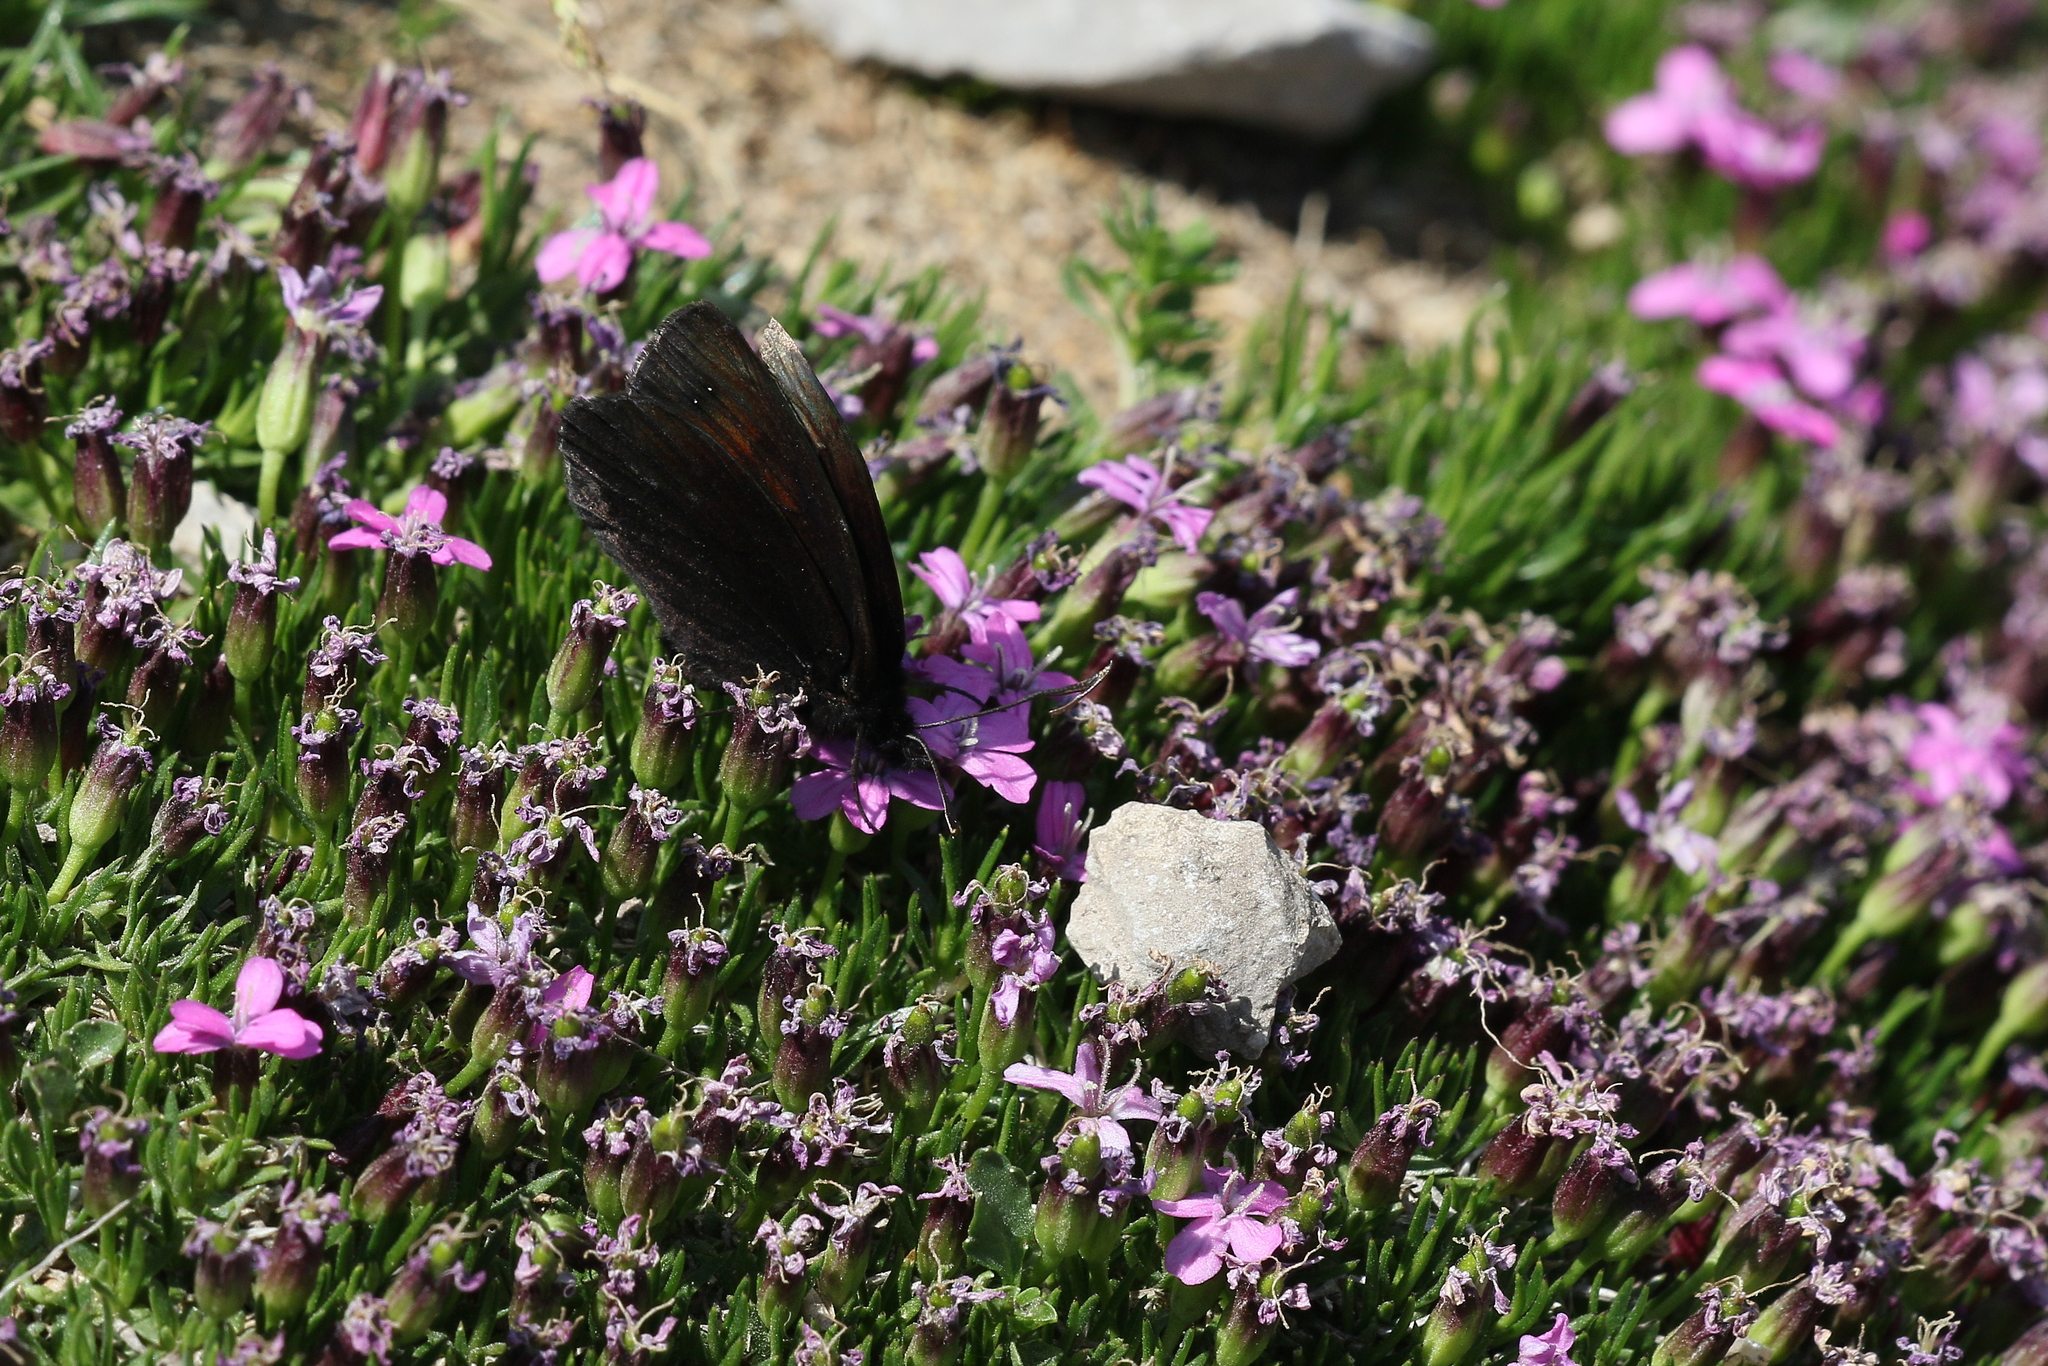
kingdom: Animalia
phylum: Arthropoda
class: Insecta
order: Lepidoptera
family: Nymphalidae
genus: Erebia
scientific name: Erebia pluto
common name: Sooty ringlet
